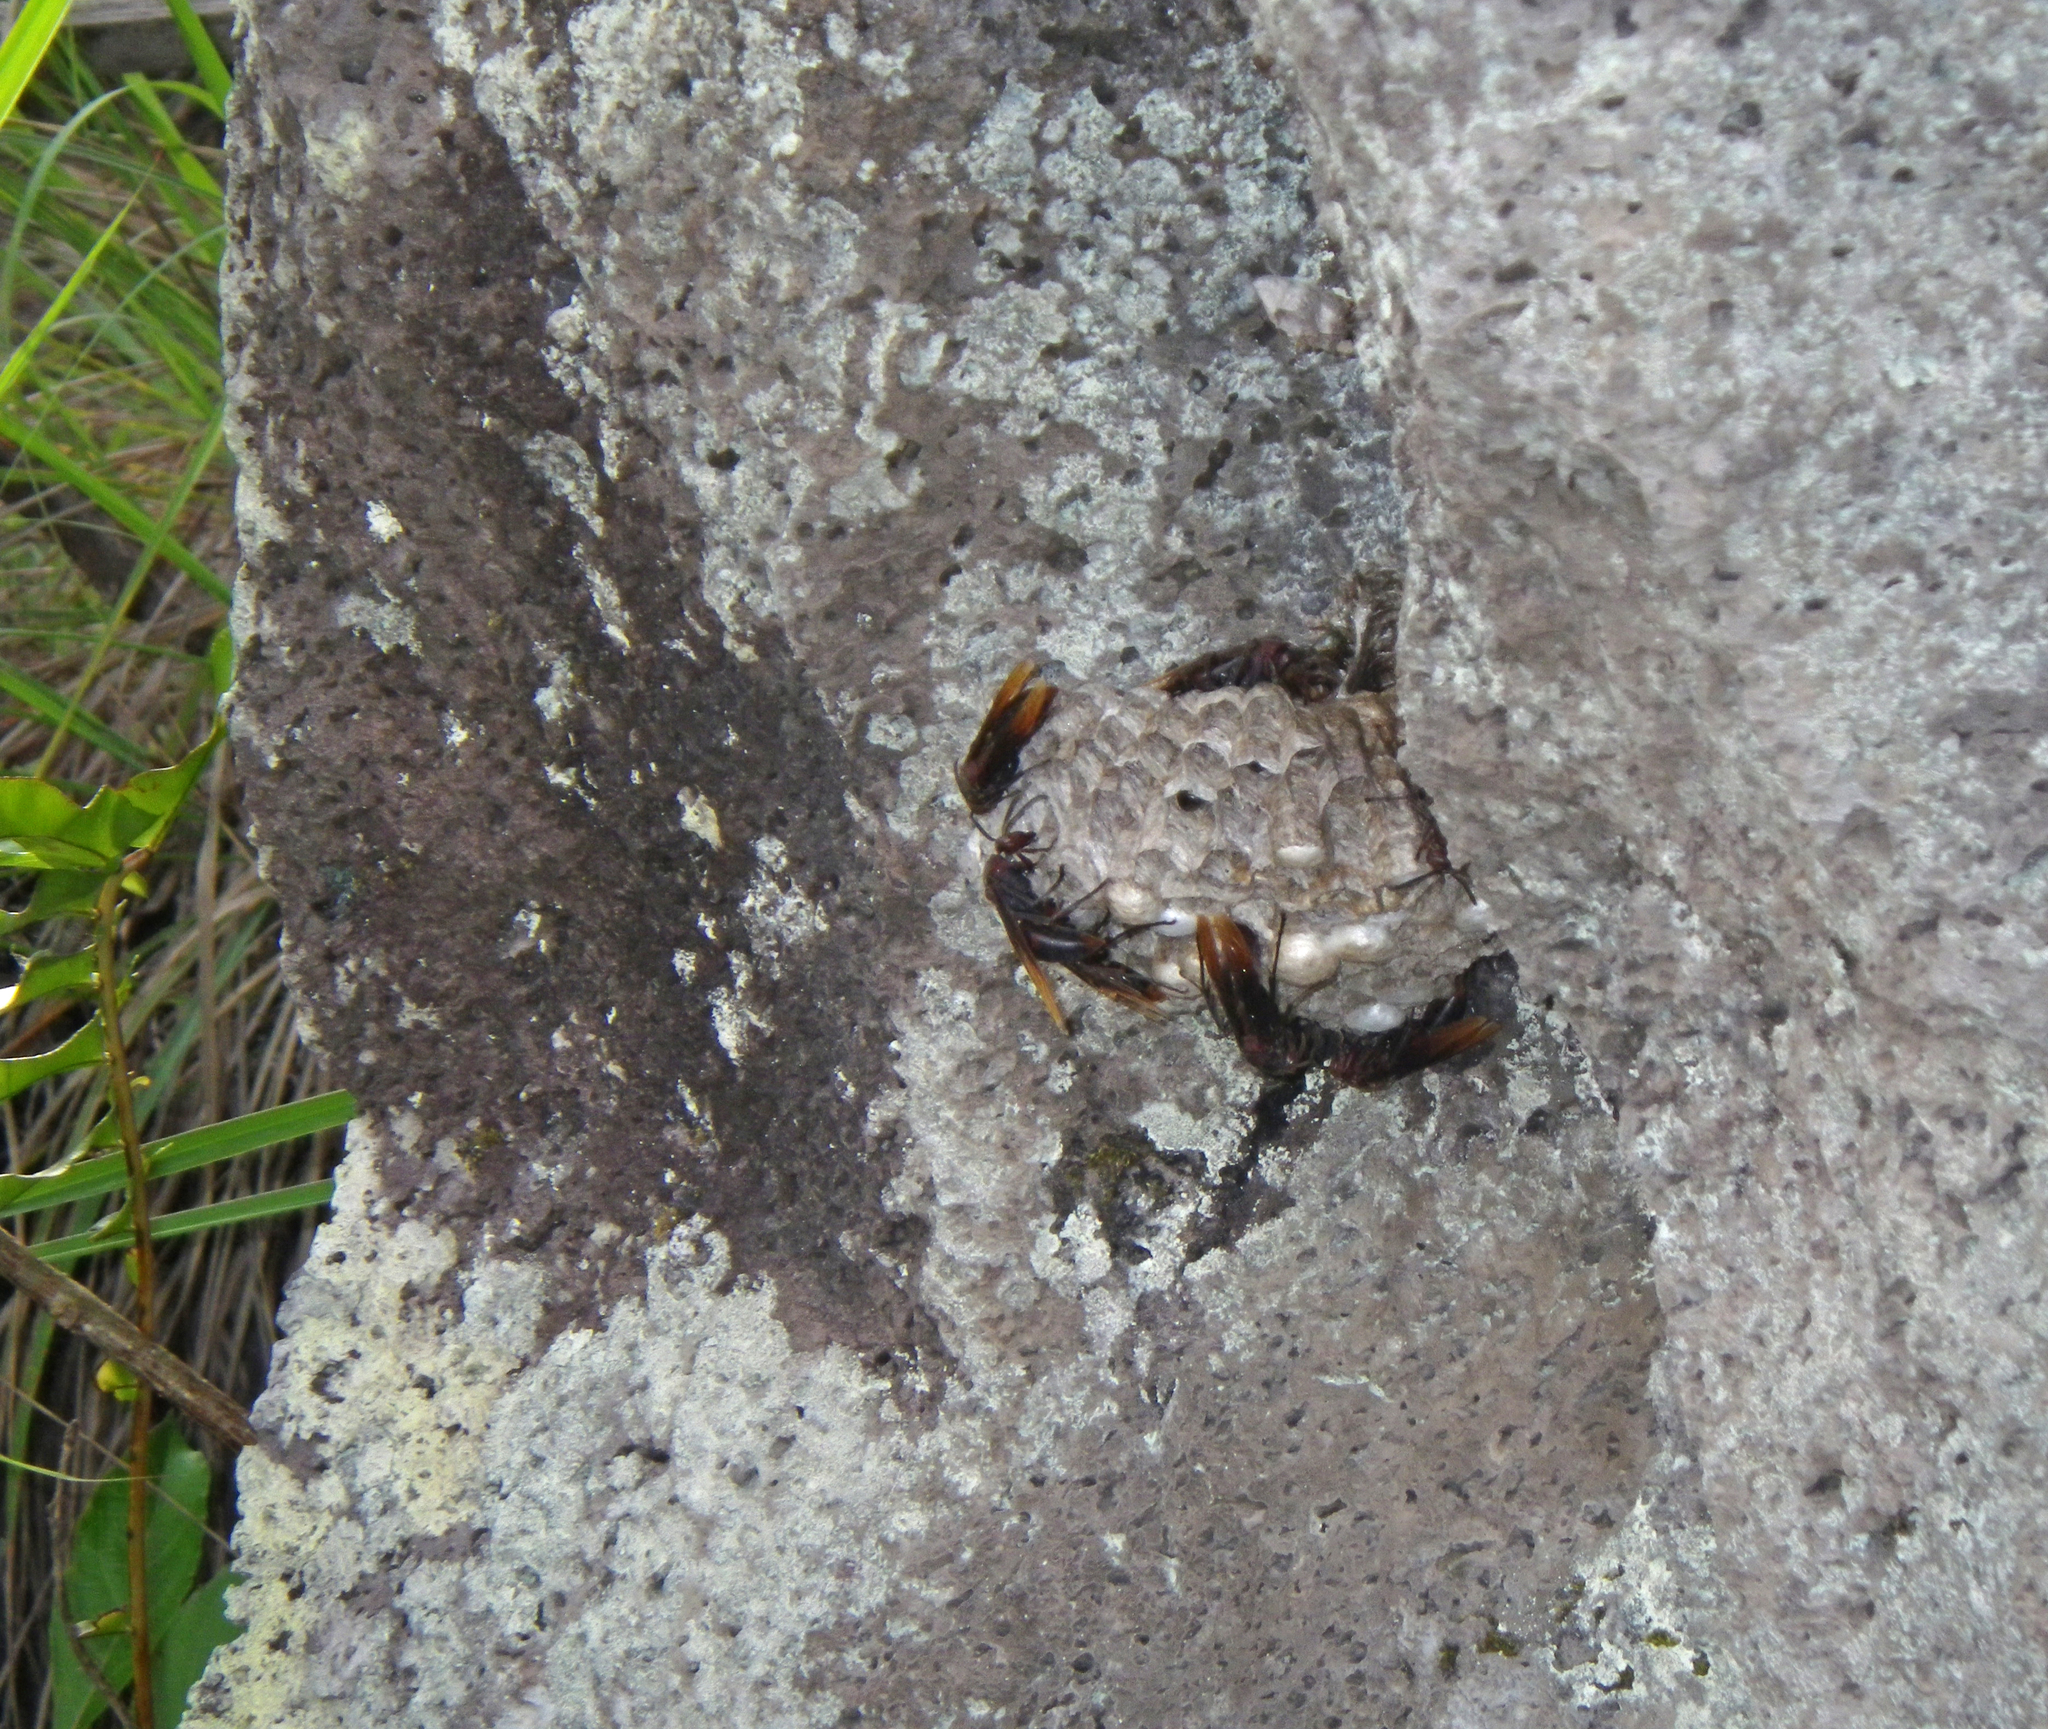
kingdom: Animalia
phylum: Arthropoda
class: Insecta
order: Hymenoptera
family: Eumenidae
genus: Polistes
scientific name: Polistes sagittarius
